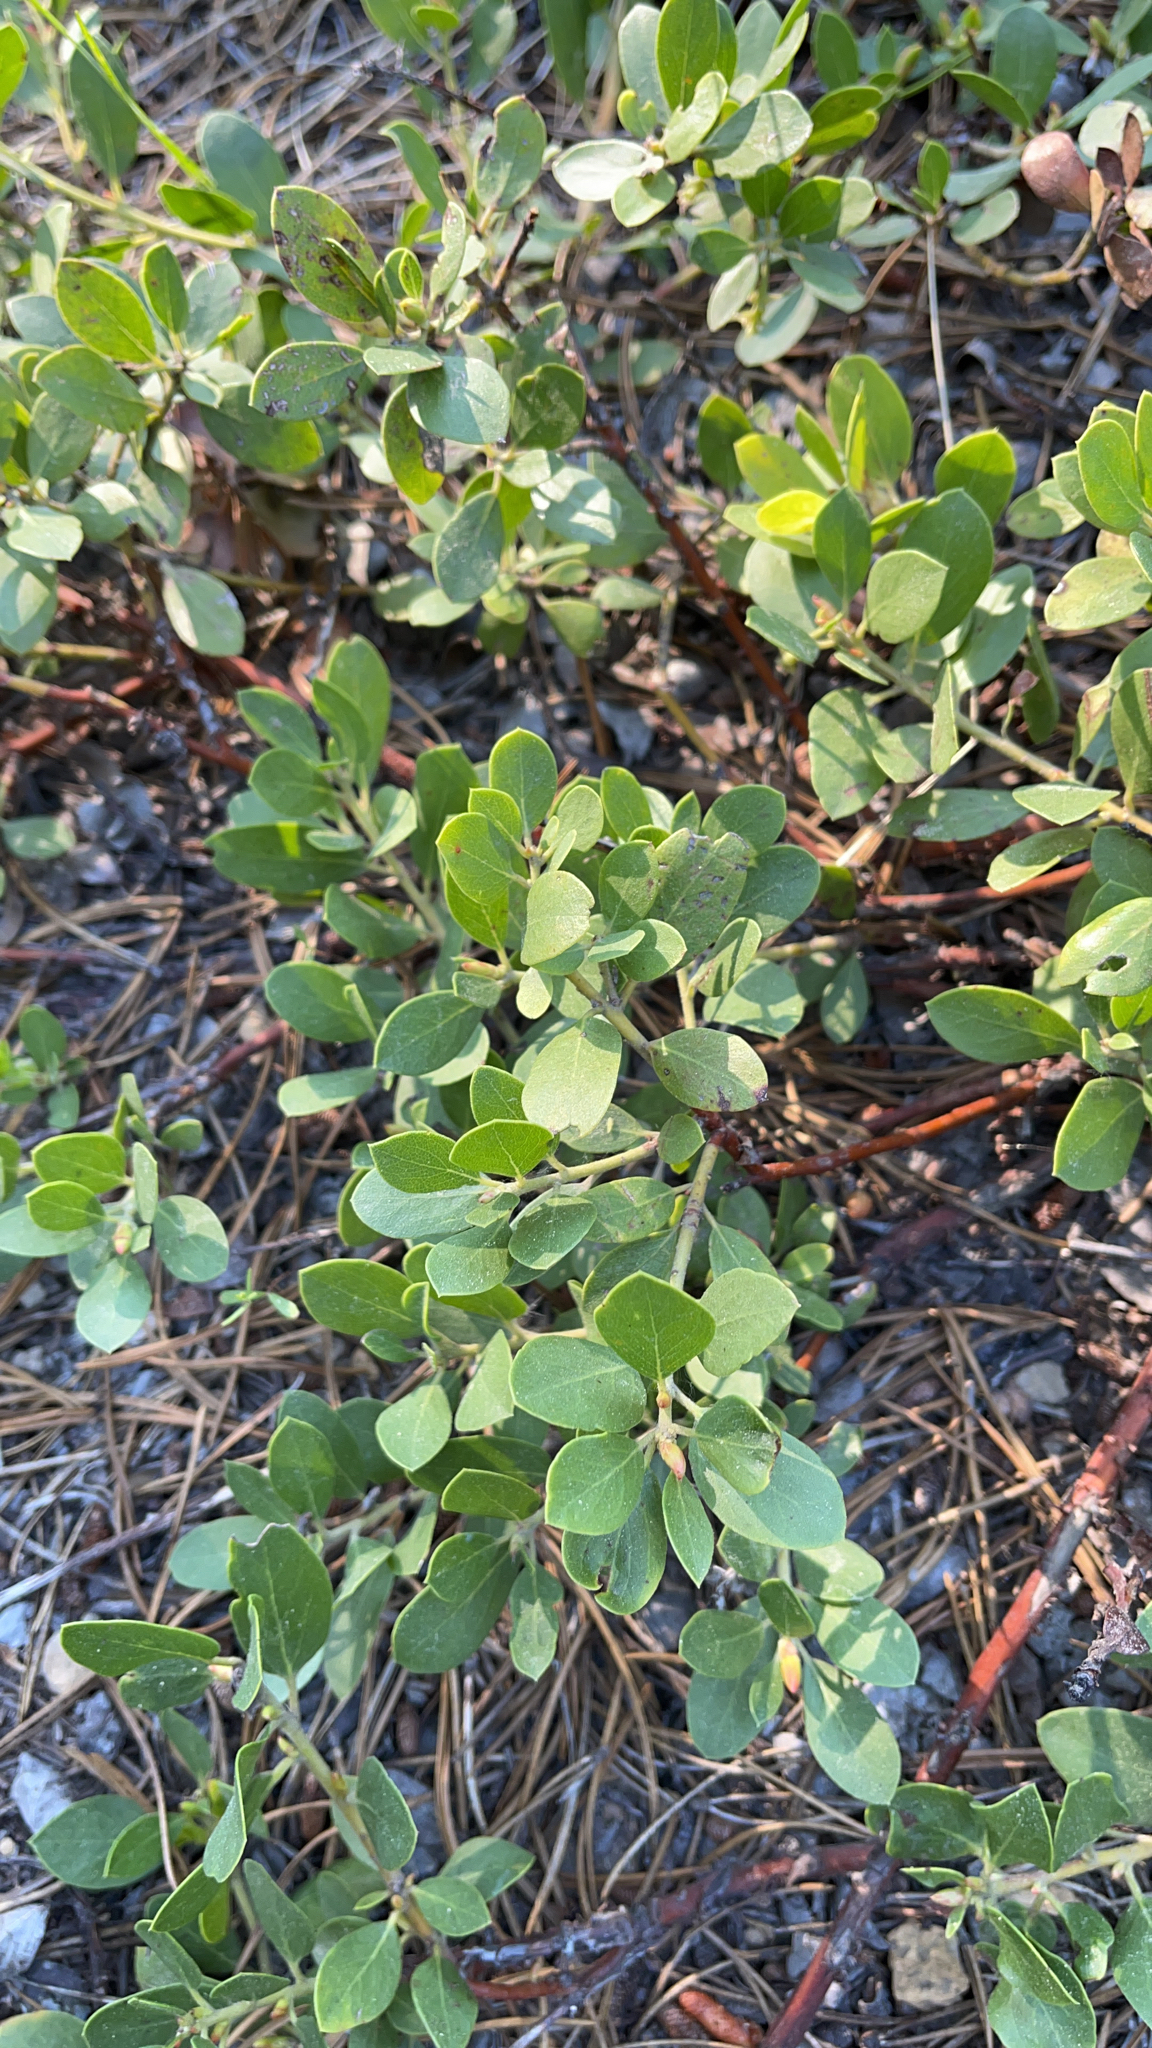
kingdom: Plantae
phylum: Tracheophyta
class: Magnoliopsida
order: Ericales
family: Ericaceae
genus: Arctostaphylos
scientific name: Arctostaphylos nevadensis
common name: Pinemat manzanita
